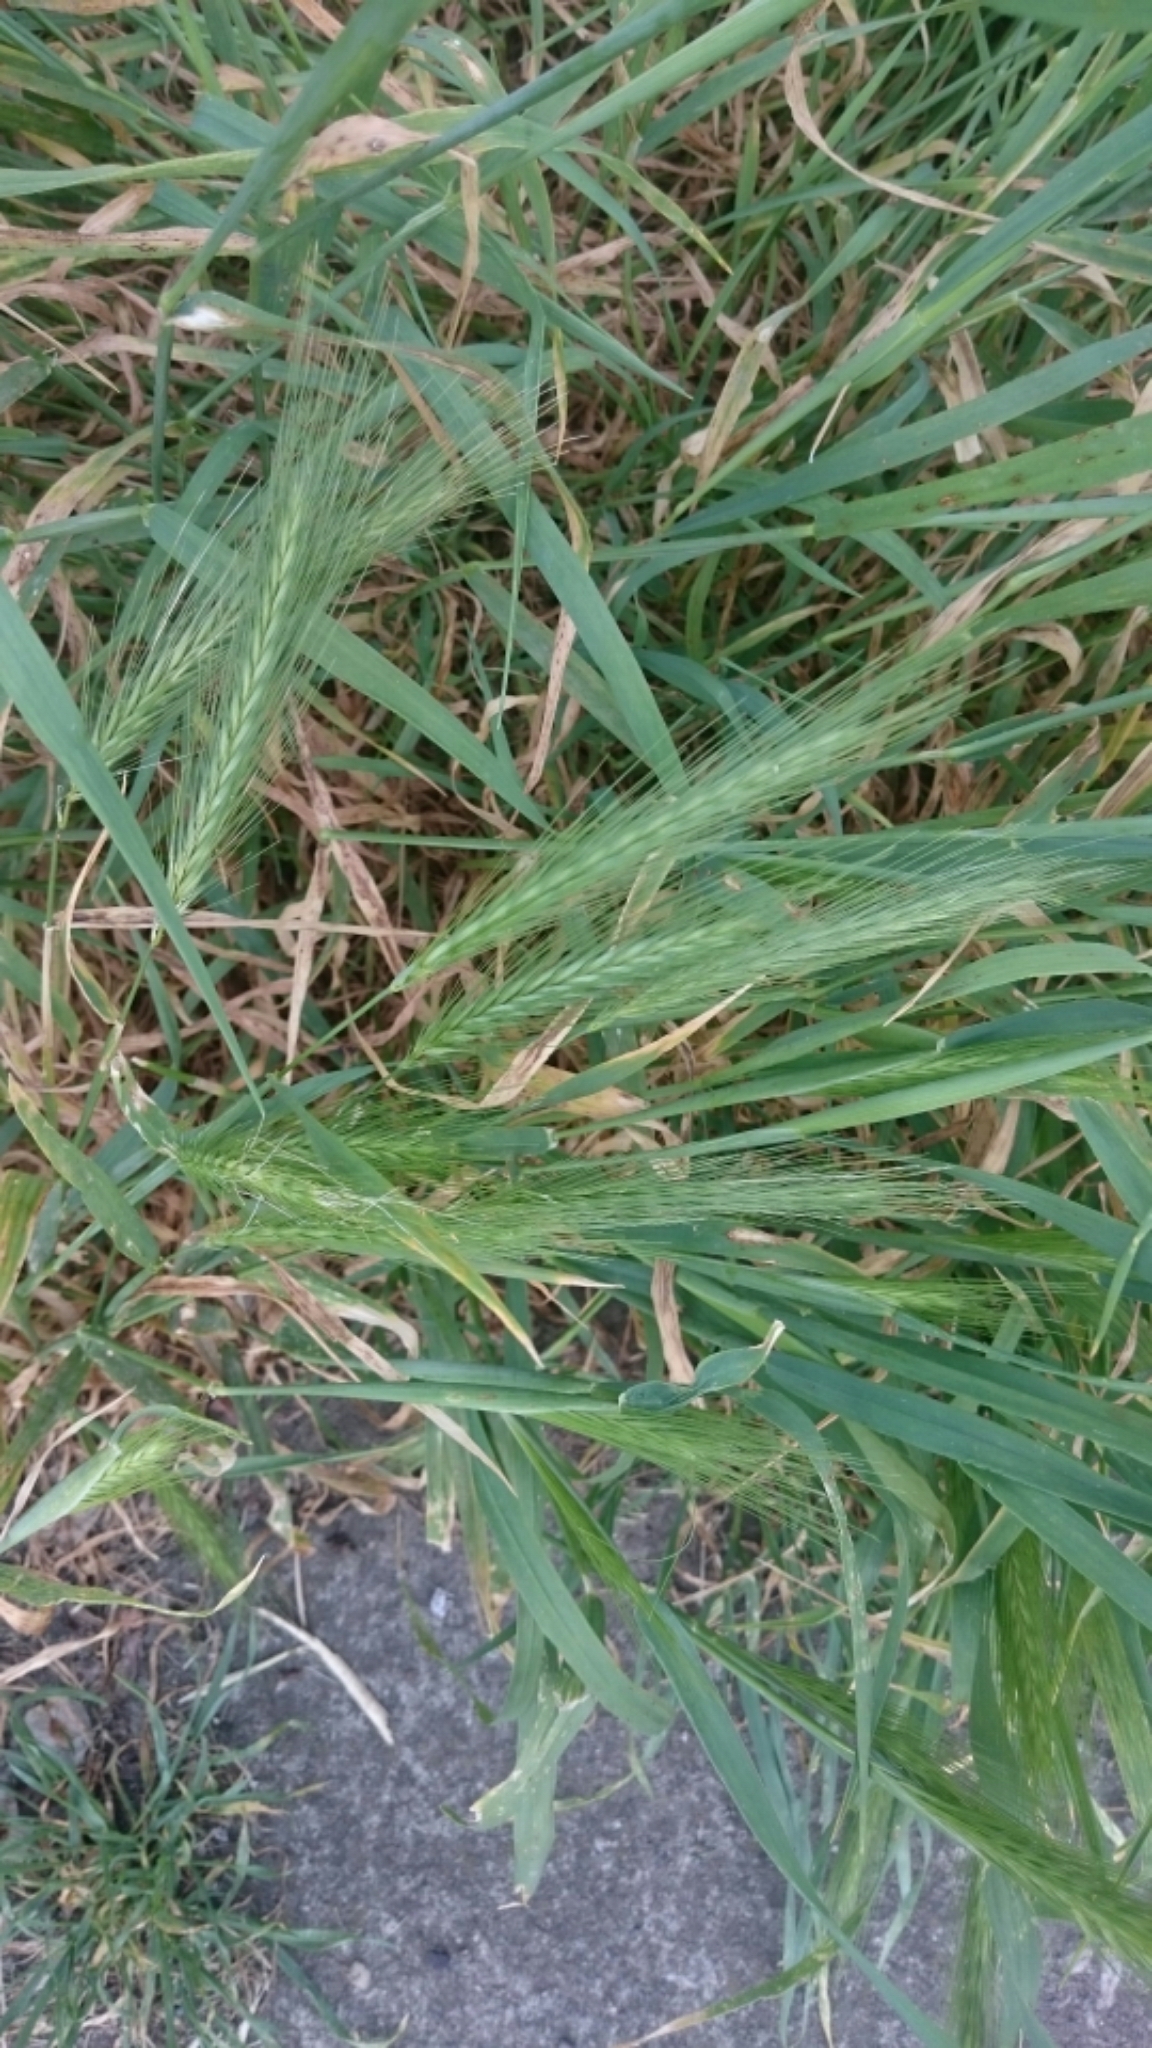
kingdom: Plantae
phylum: Tracheophyta
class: Liliopsida
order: Poales
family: Poaceae
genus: Hordeum
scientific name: Hordeum murinum
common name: Wall barley
